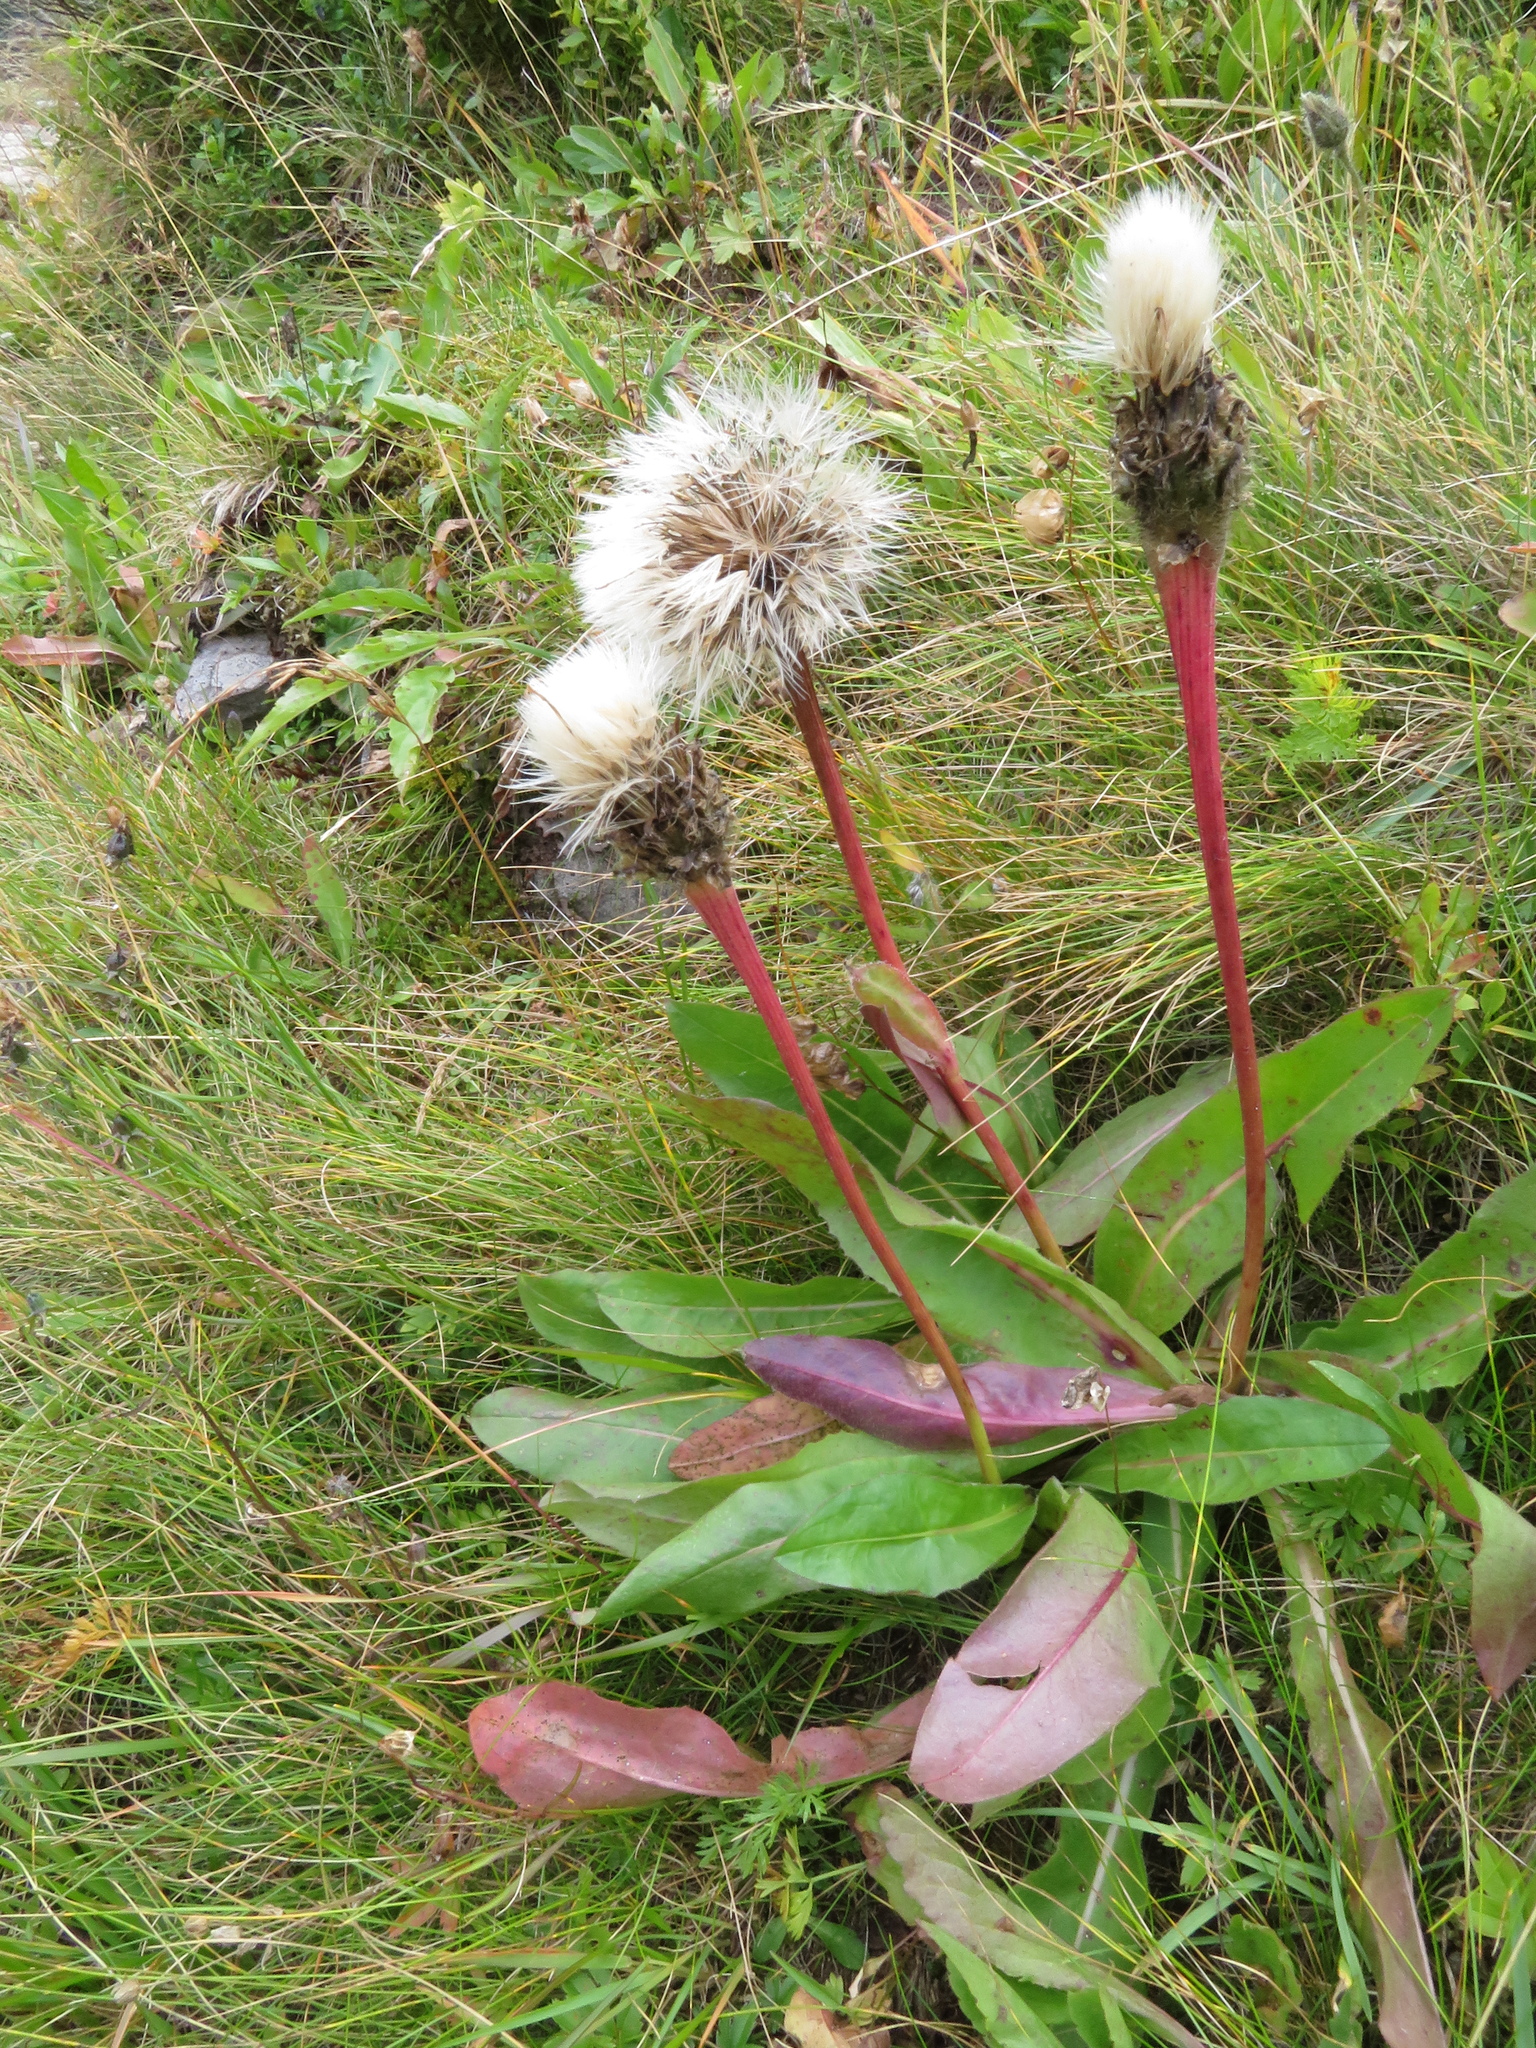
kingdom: Plantae
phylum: Tracheophyta
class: Magnoliopsida
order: Asterales
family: Asteraceae
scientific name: Asteraceae
